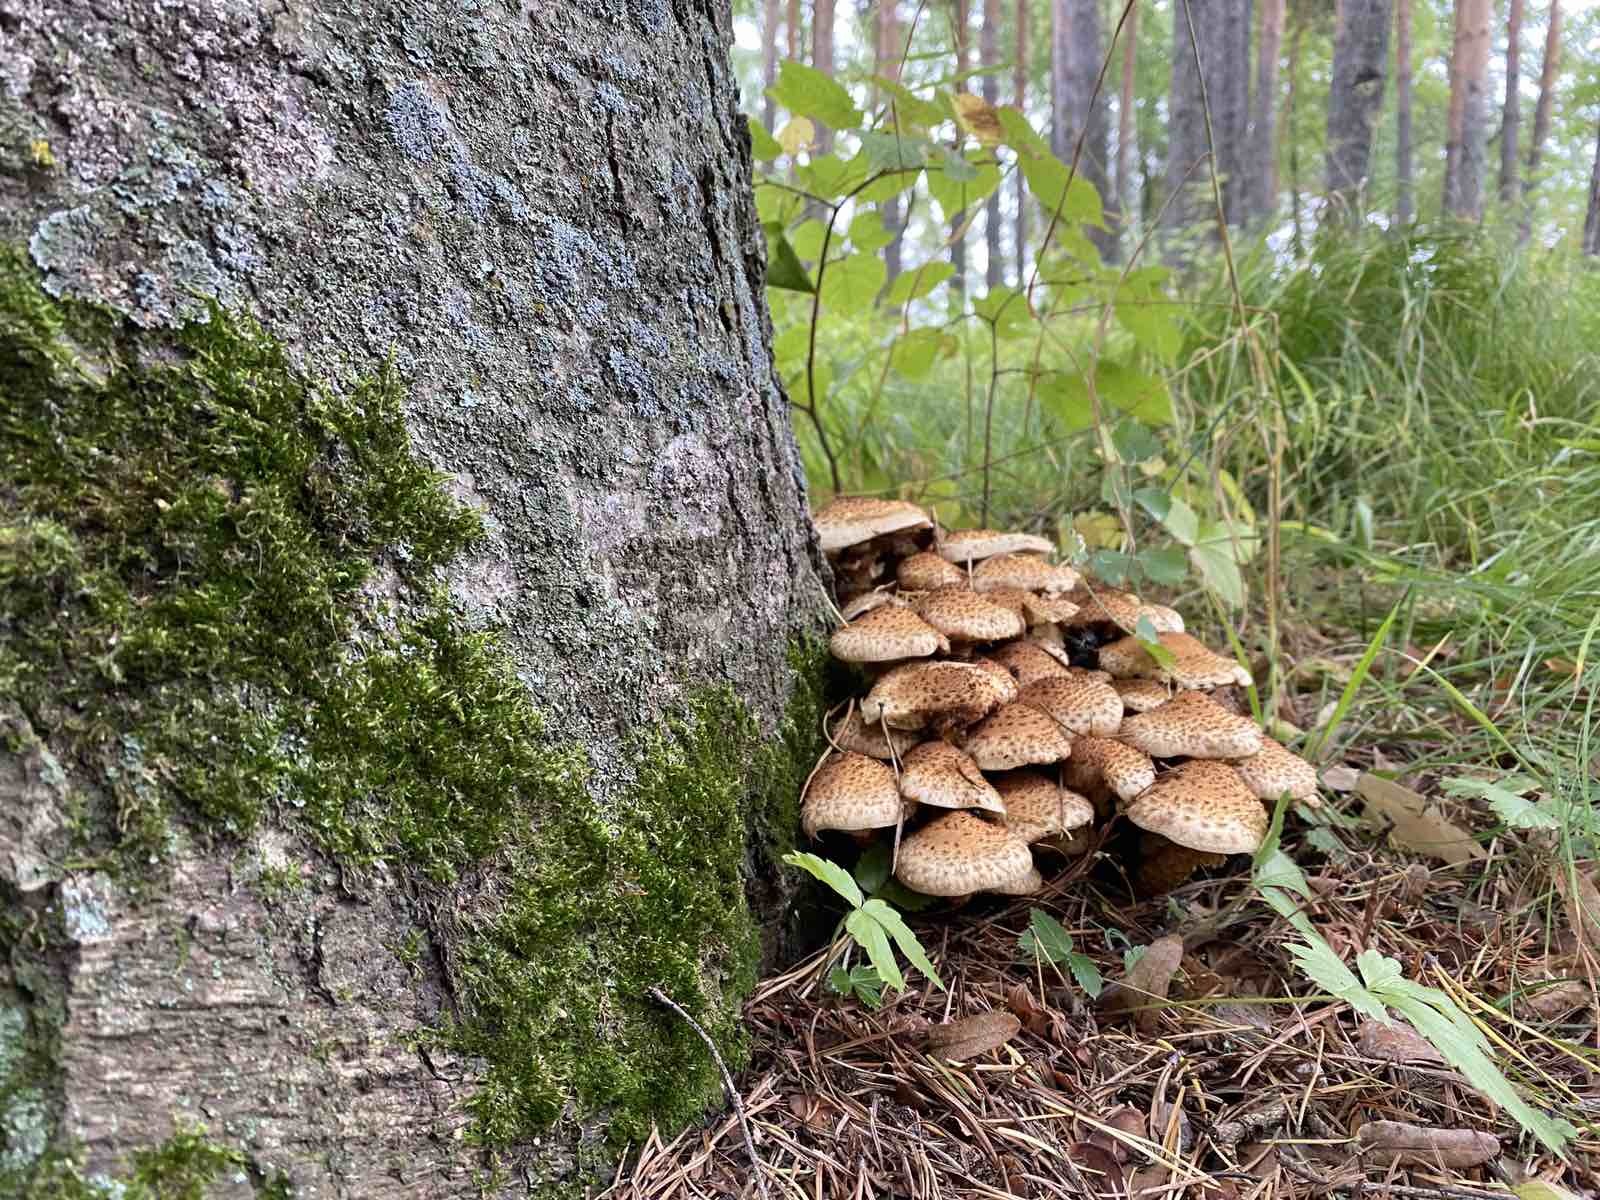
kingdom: Fungi
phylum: Basidiomycota
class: Agaricomycetes
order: Agaricales
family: Strophariaceae
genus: Pholiota
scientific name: Pholiota squarrosa
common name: Shaggy pholiota
